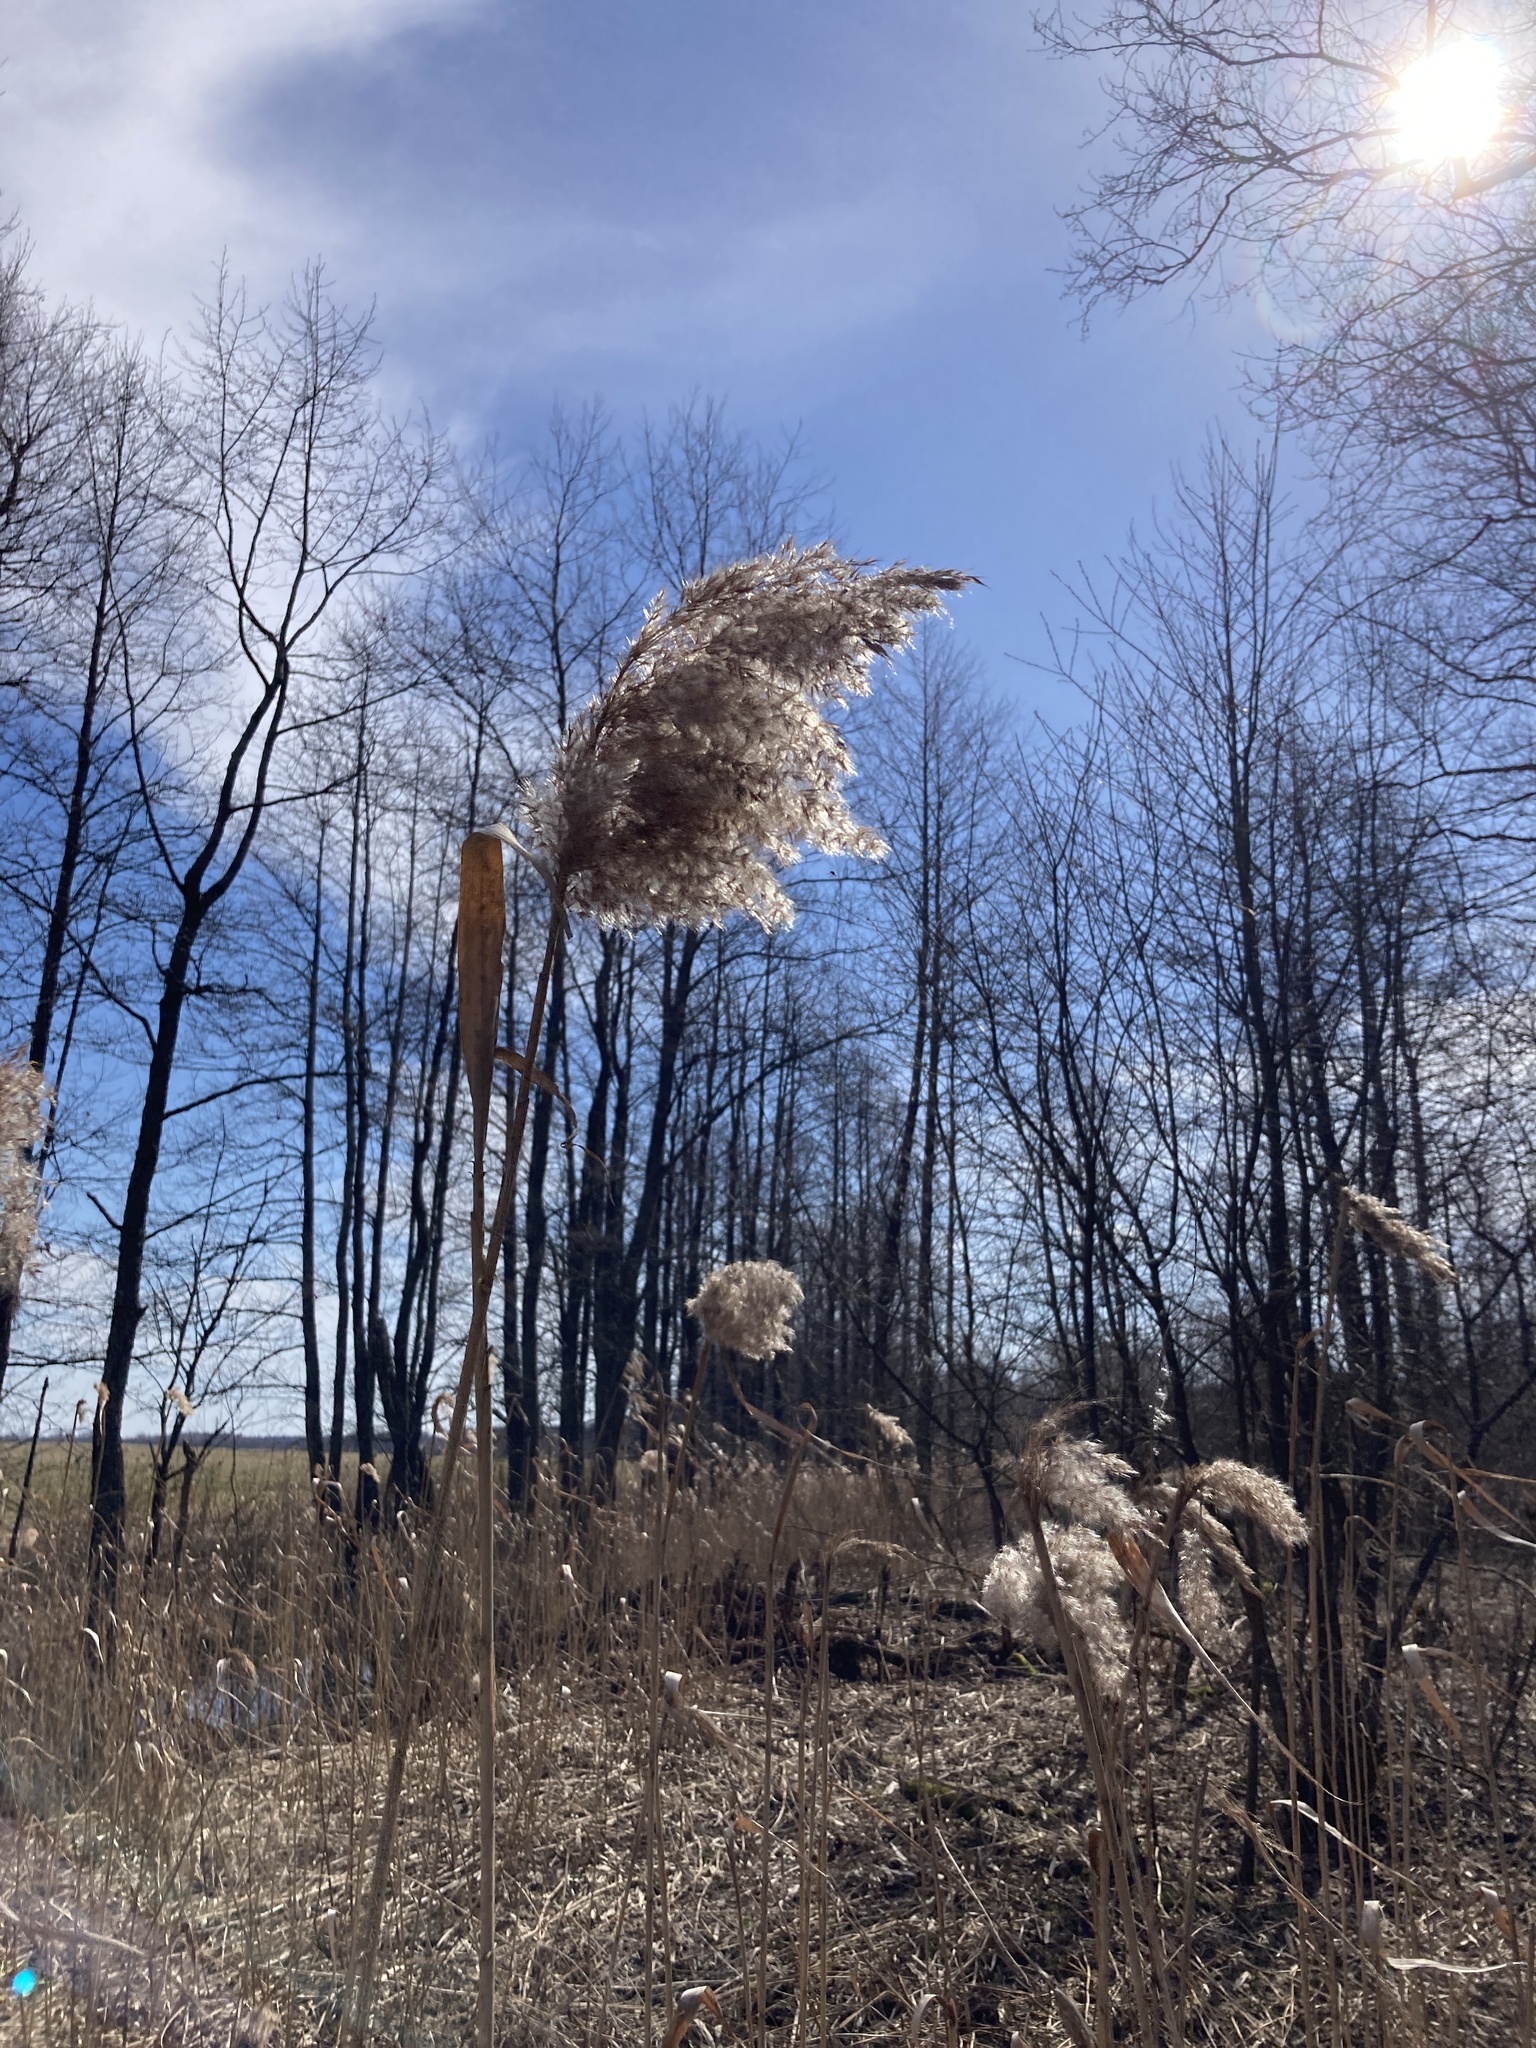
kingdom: Plantae
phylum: Tracheophyta
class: Liliopsida
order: Poales
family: Poaceae
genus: Phragmites
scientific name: Phragmites australis
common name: Common reed
